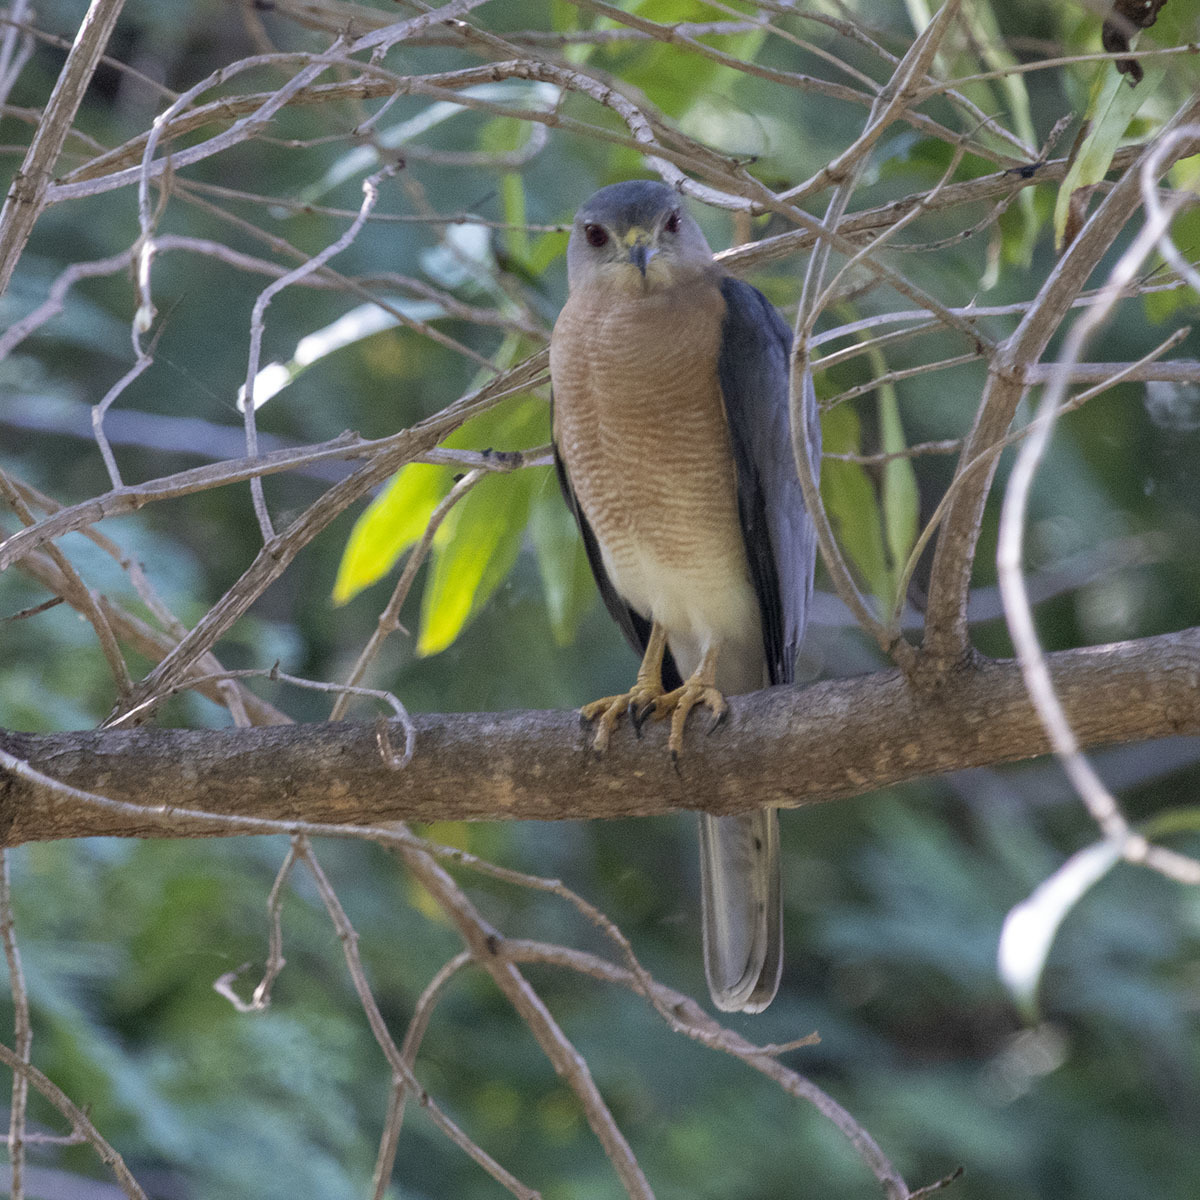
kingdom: Animalia
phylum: Chordata
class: Aves
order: Accipitriformes
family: Accipitridae
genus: Accipiter
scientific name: Accipiter badius
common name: Shikra
